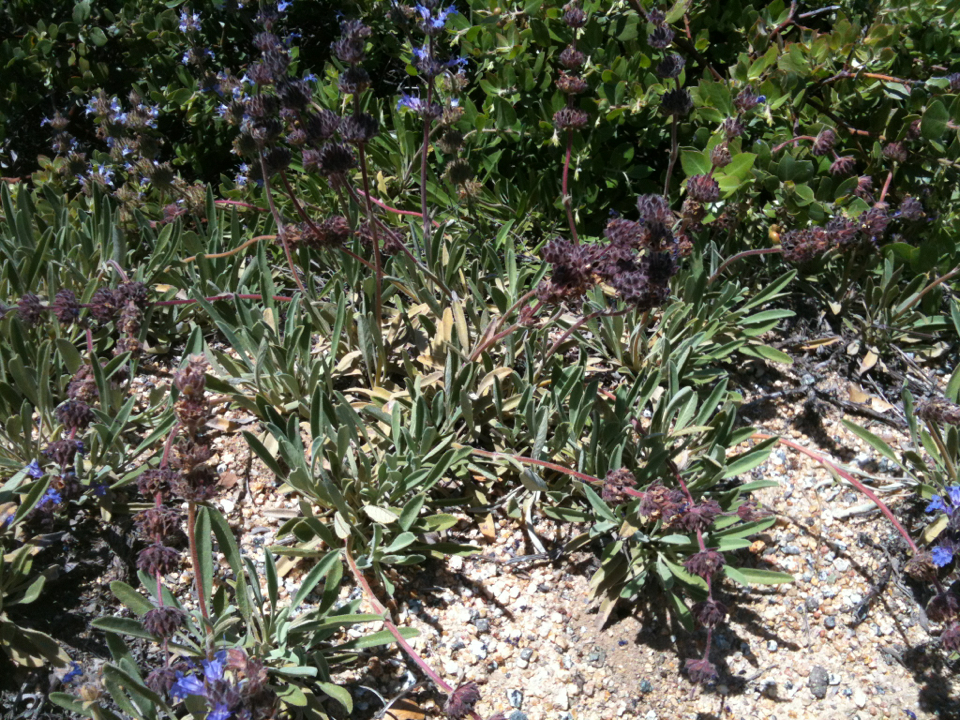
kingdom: Plantae
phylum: Tracheophyta
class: Magnoliopsida
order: Lamiales
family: Lamiaceae
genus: Salvia
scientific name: Salvia sonomensis
